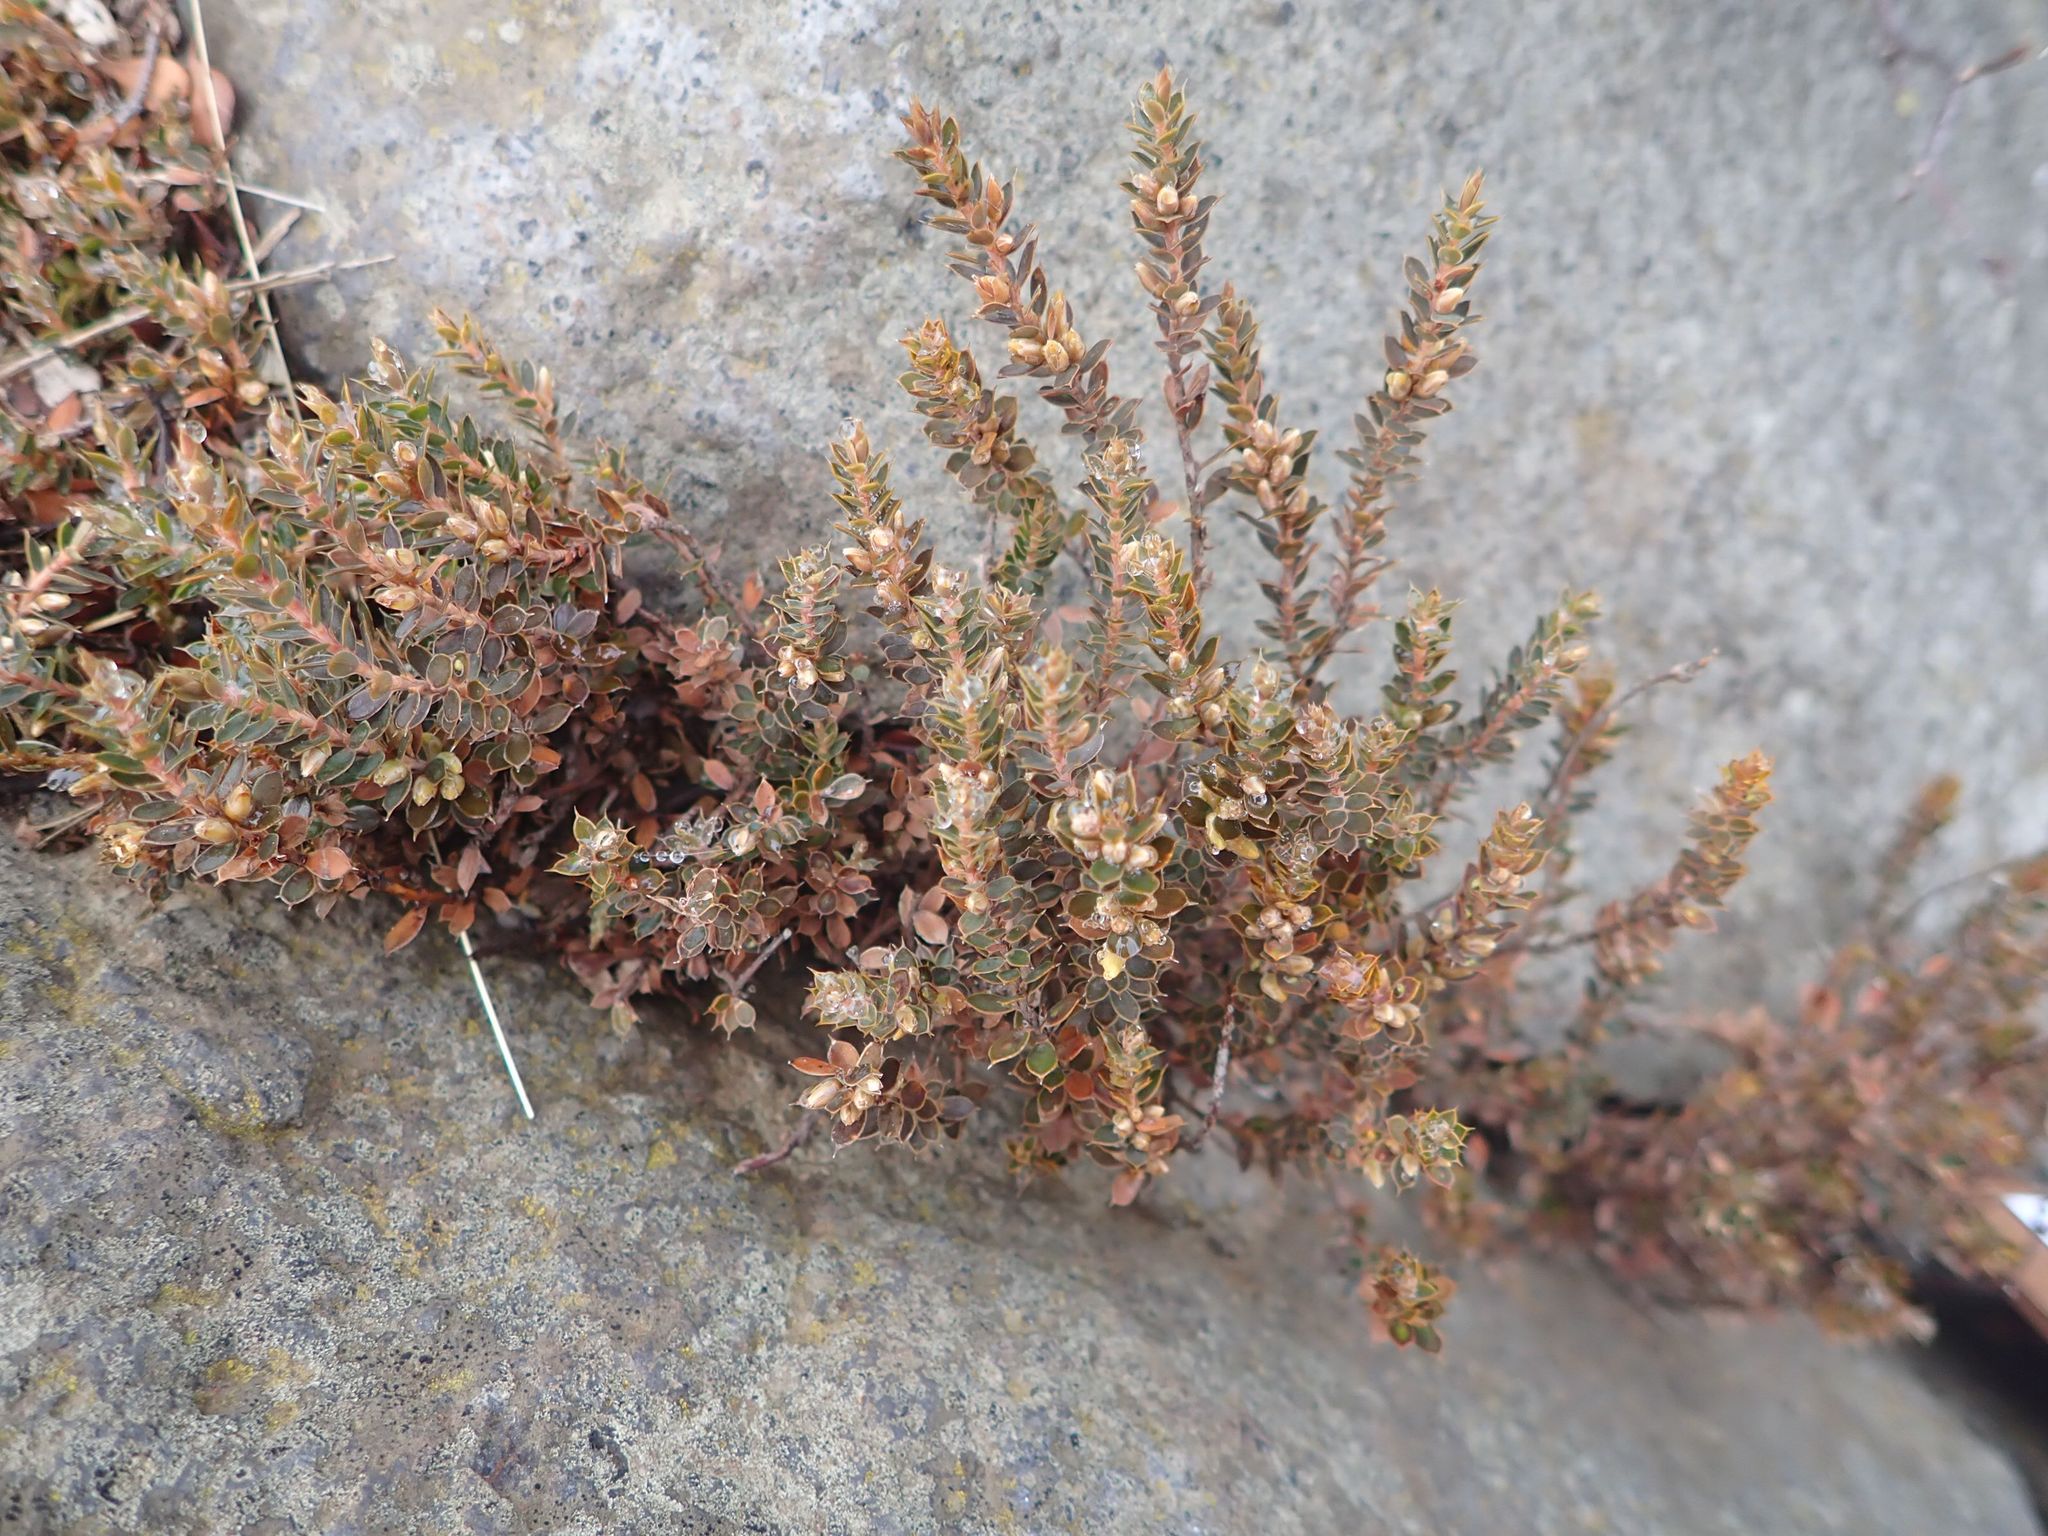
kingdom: Plantae
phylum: Tracheophyta
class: Magnoliopsida
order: Ericales
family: Ericaceae
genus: Styphelia
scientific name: Styphelia nesophila
